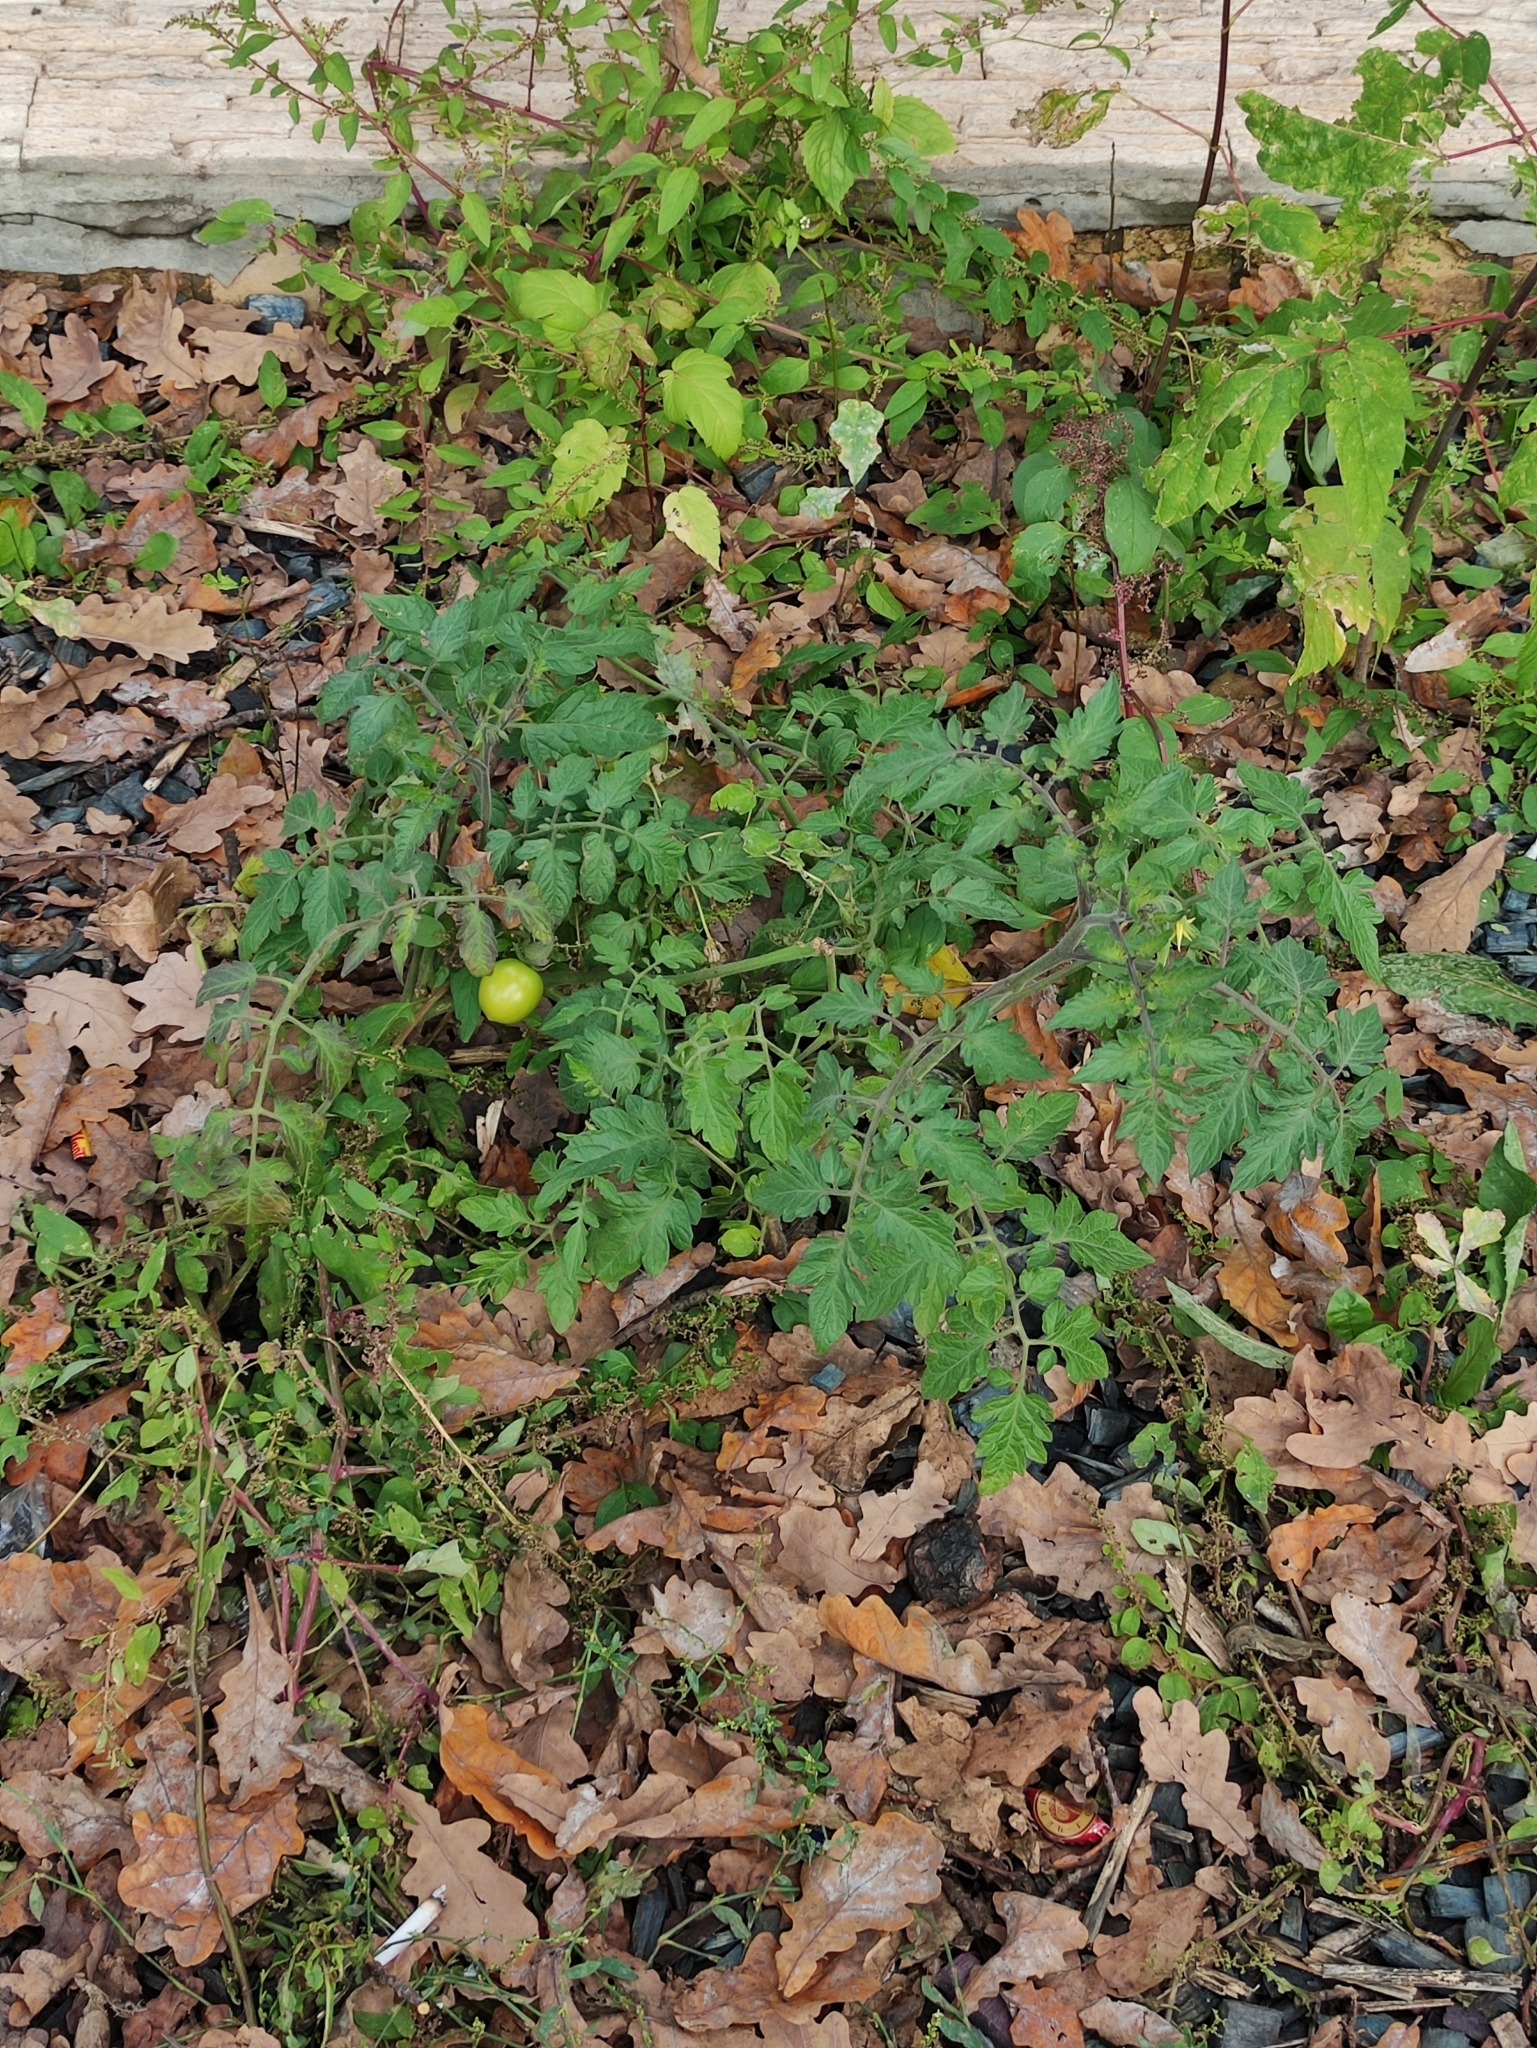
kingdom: Plantae
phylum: Tracheophyta
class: Magnoliopsida
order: Solanales
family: Solanaceae
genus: Solanum
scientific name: Solanum lycopersicum
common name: Garden tomato
